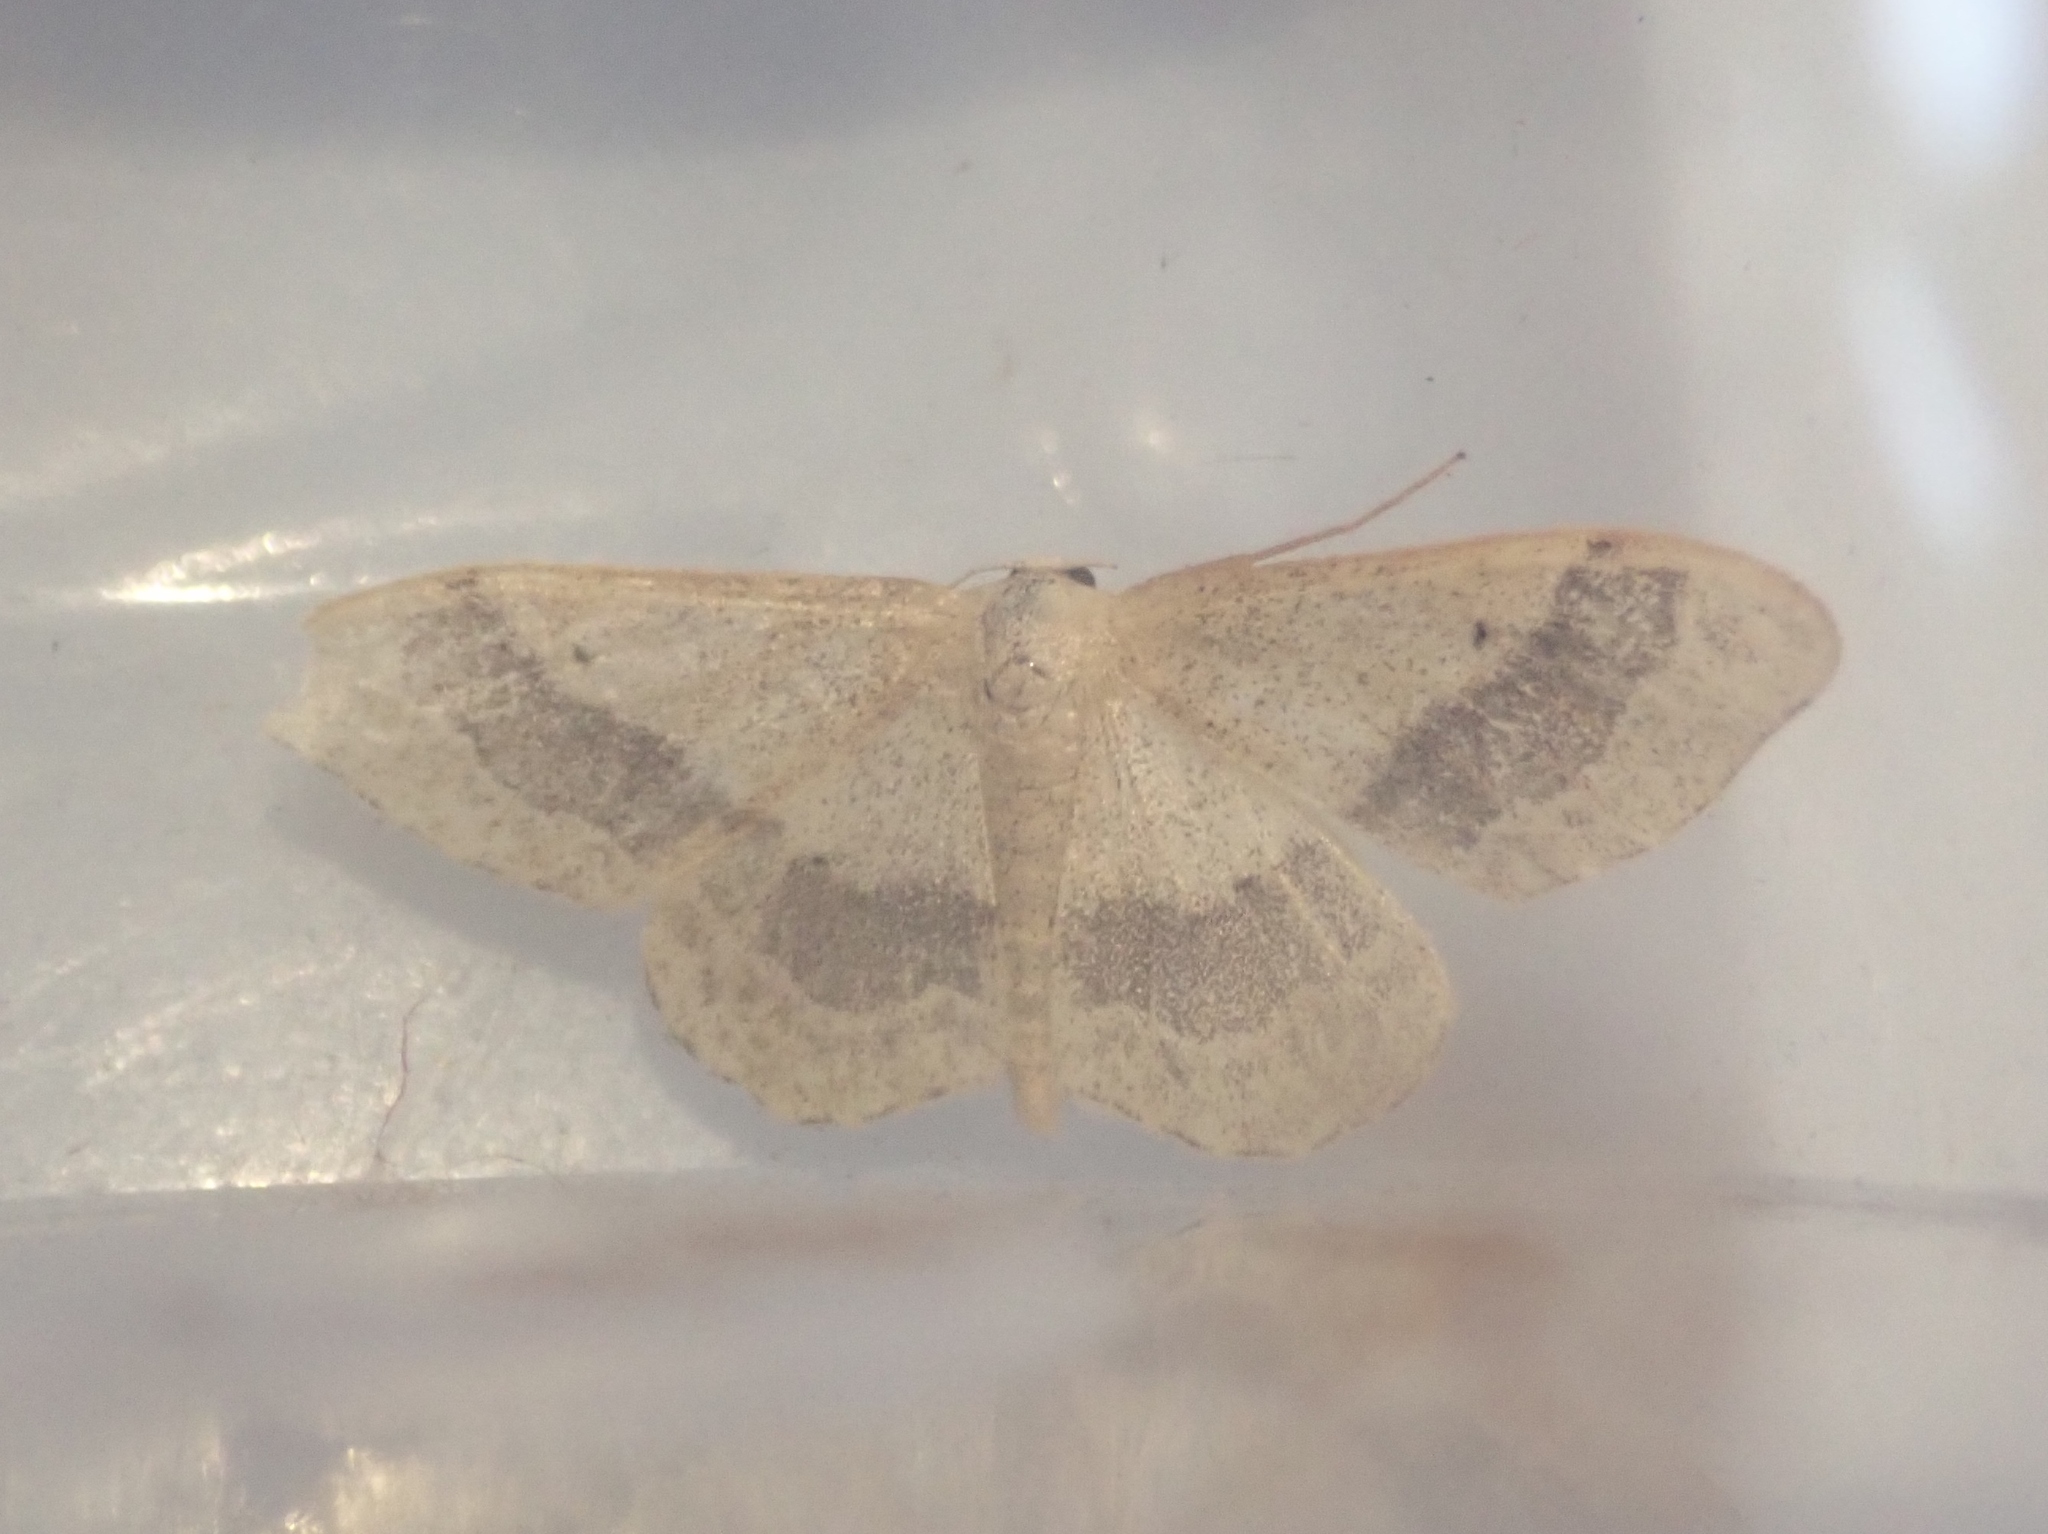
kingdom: Animalia
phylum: Arthropoda
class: Insecta
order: Lepidoptera
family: Geometridae
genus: Idaea
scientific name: Idaea aversata
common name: Riband wave
